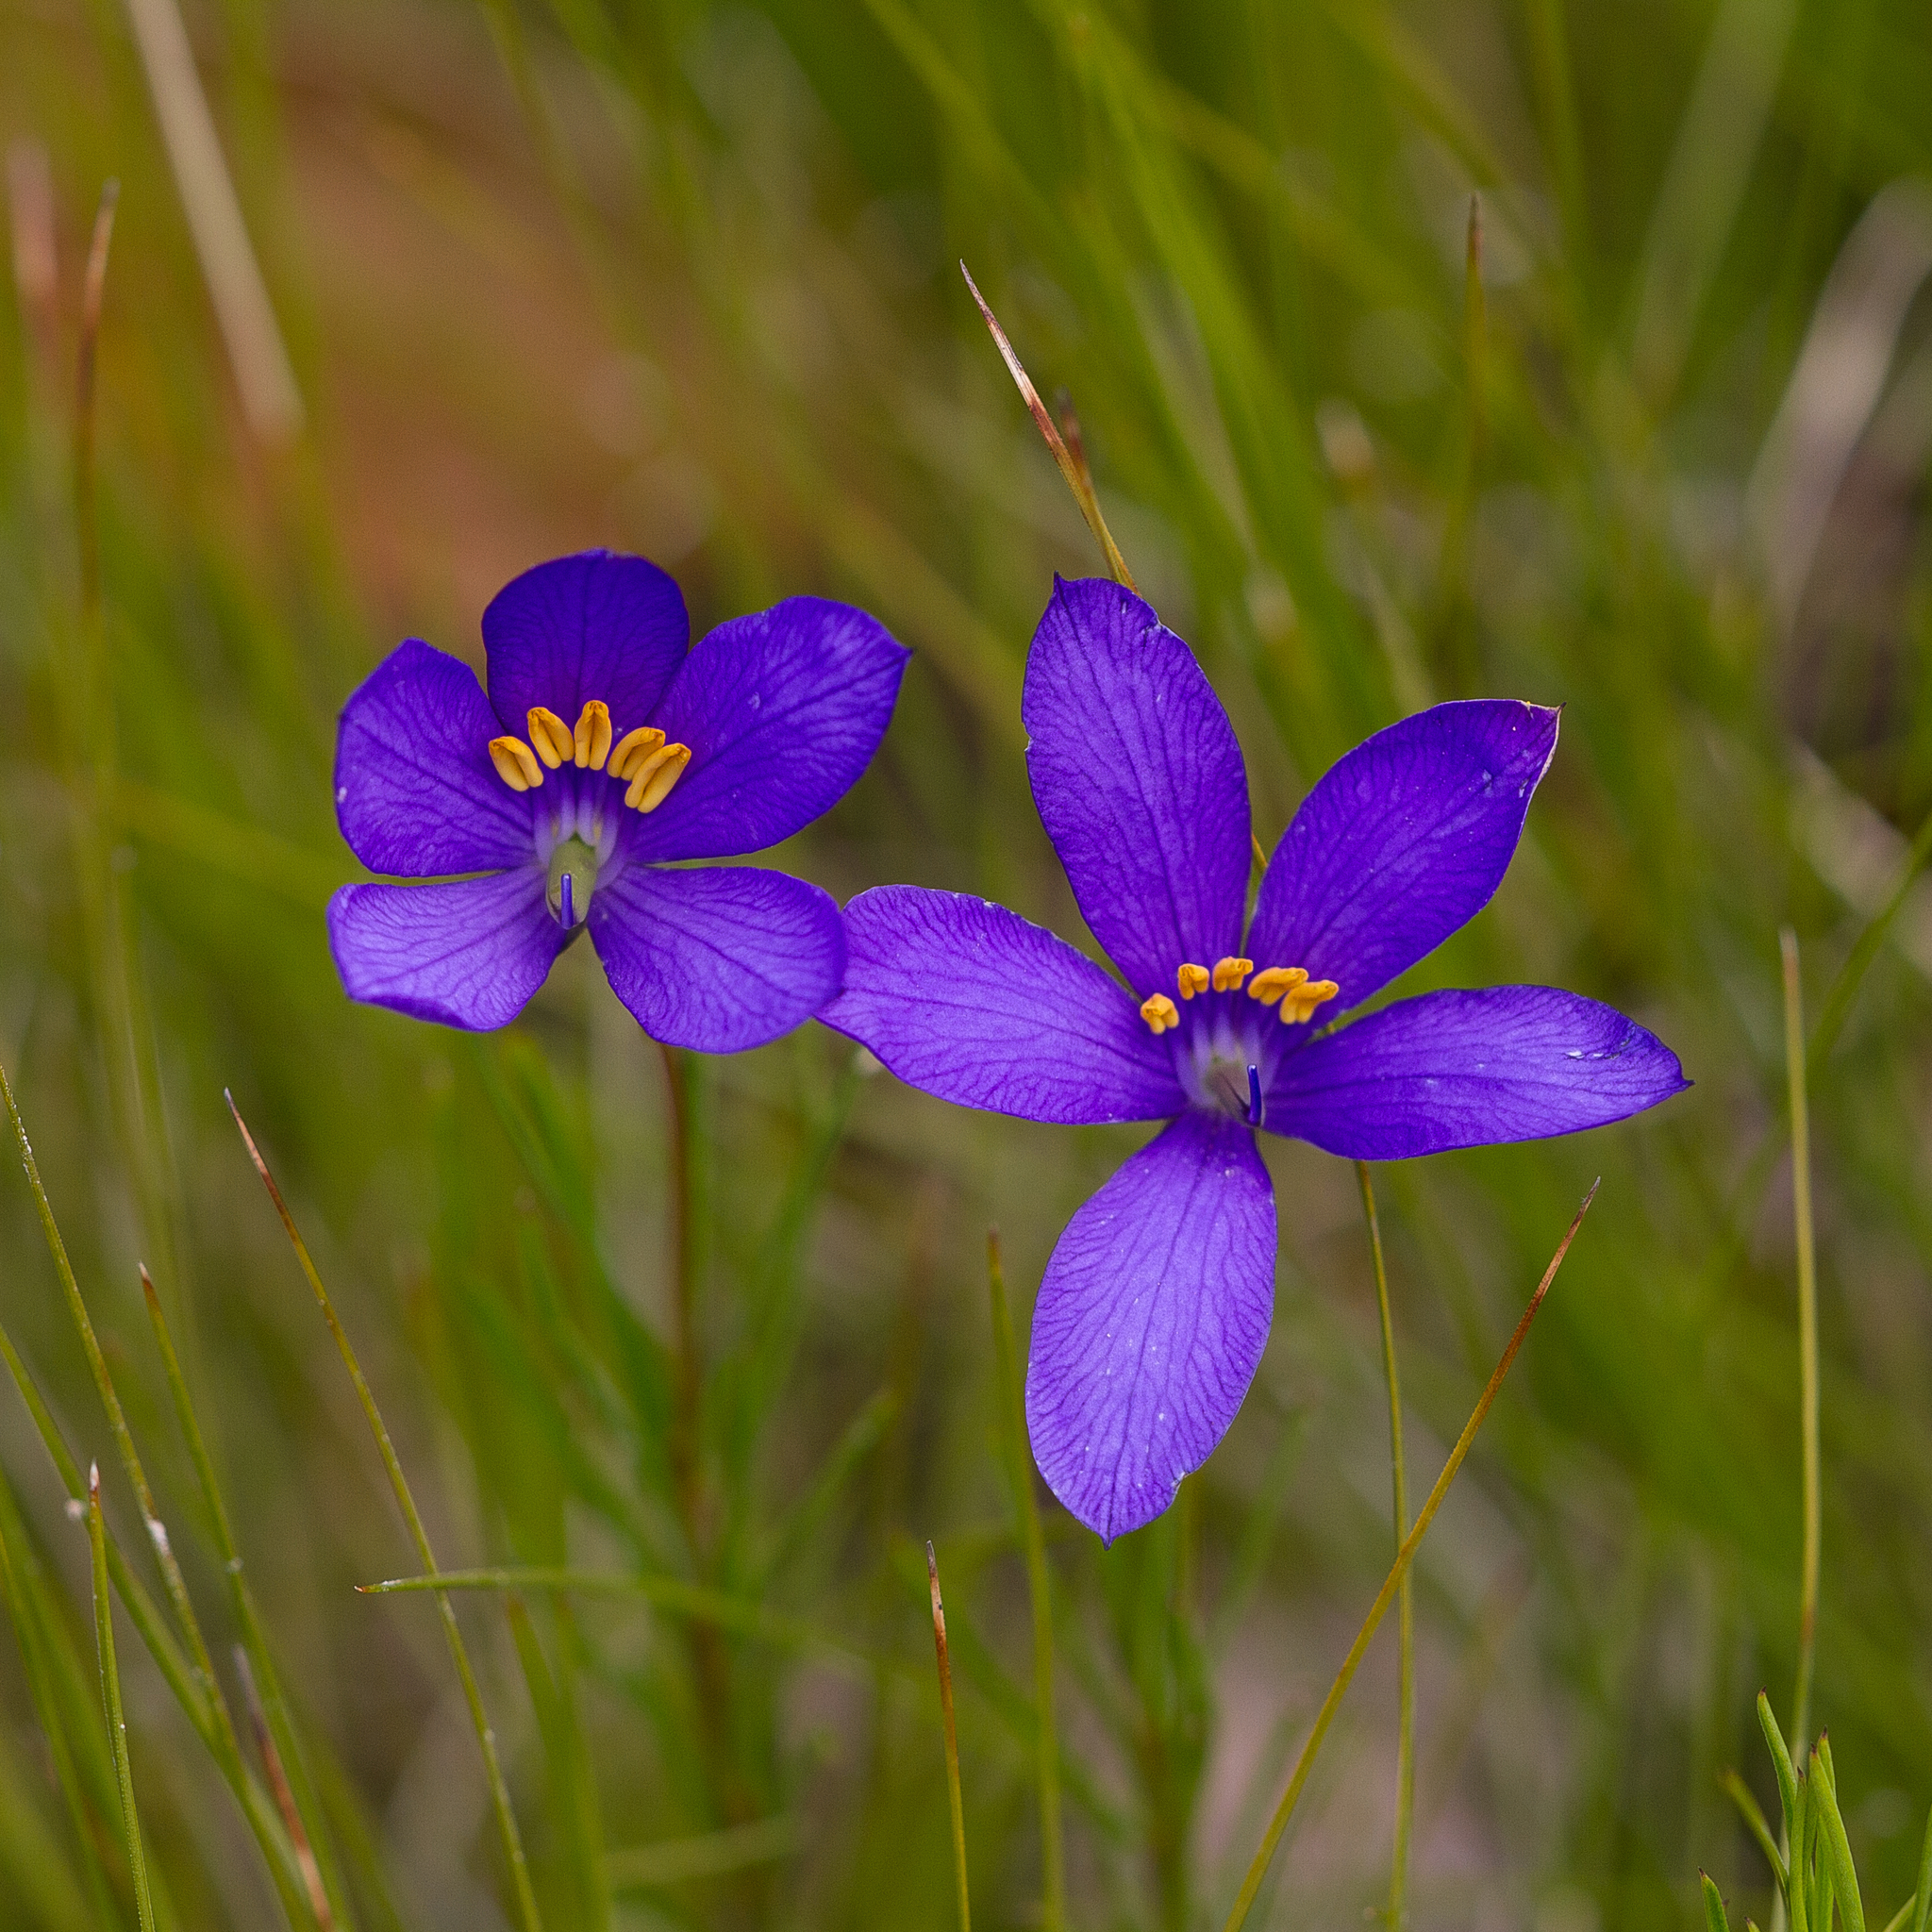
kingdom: Plantae
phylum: Tracheophyta
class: Magnoliopsida
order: Apiales
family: Pittosporaceae
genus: Cheiranthera
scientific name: Cheiranthera alternifolia
